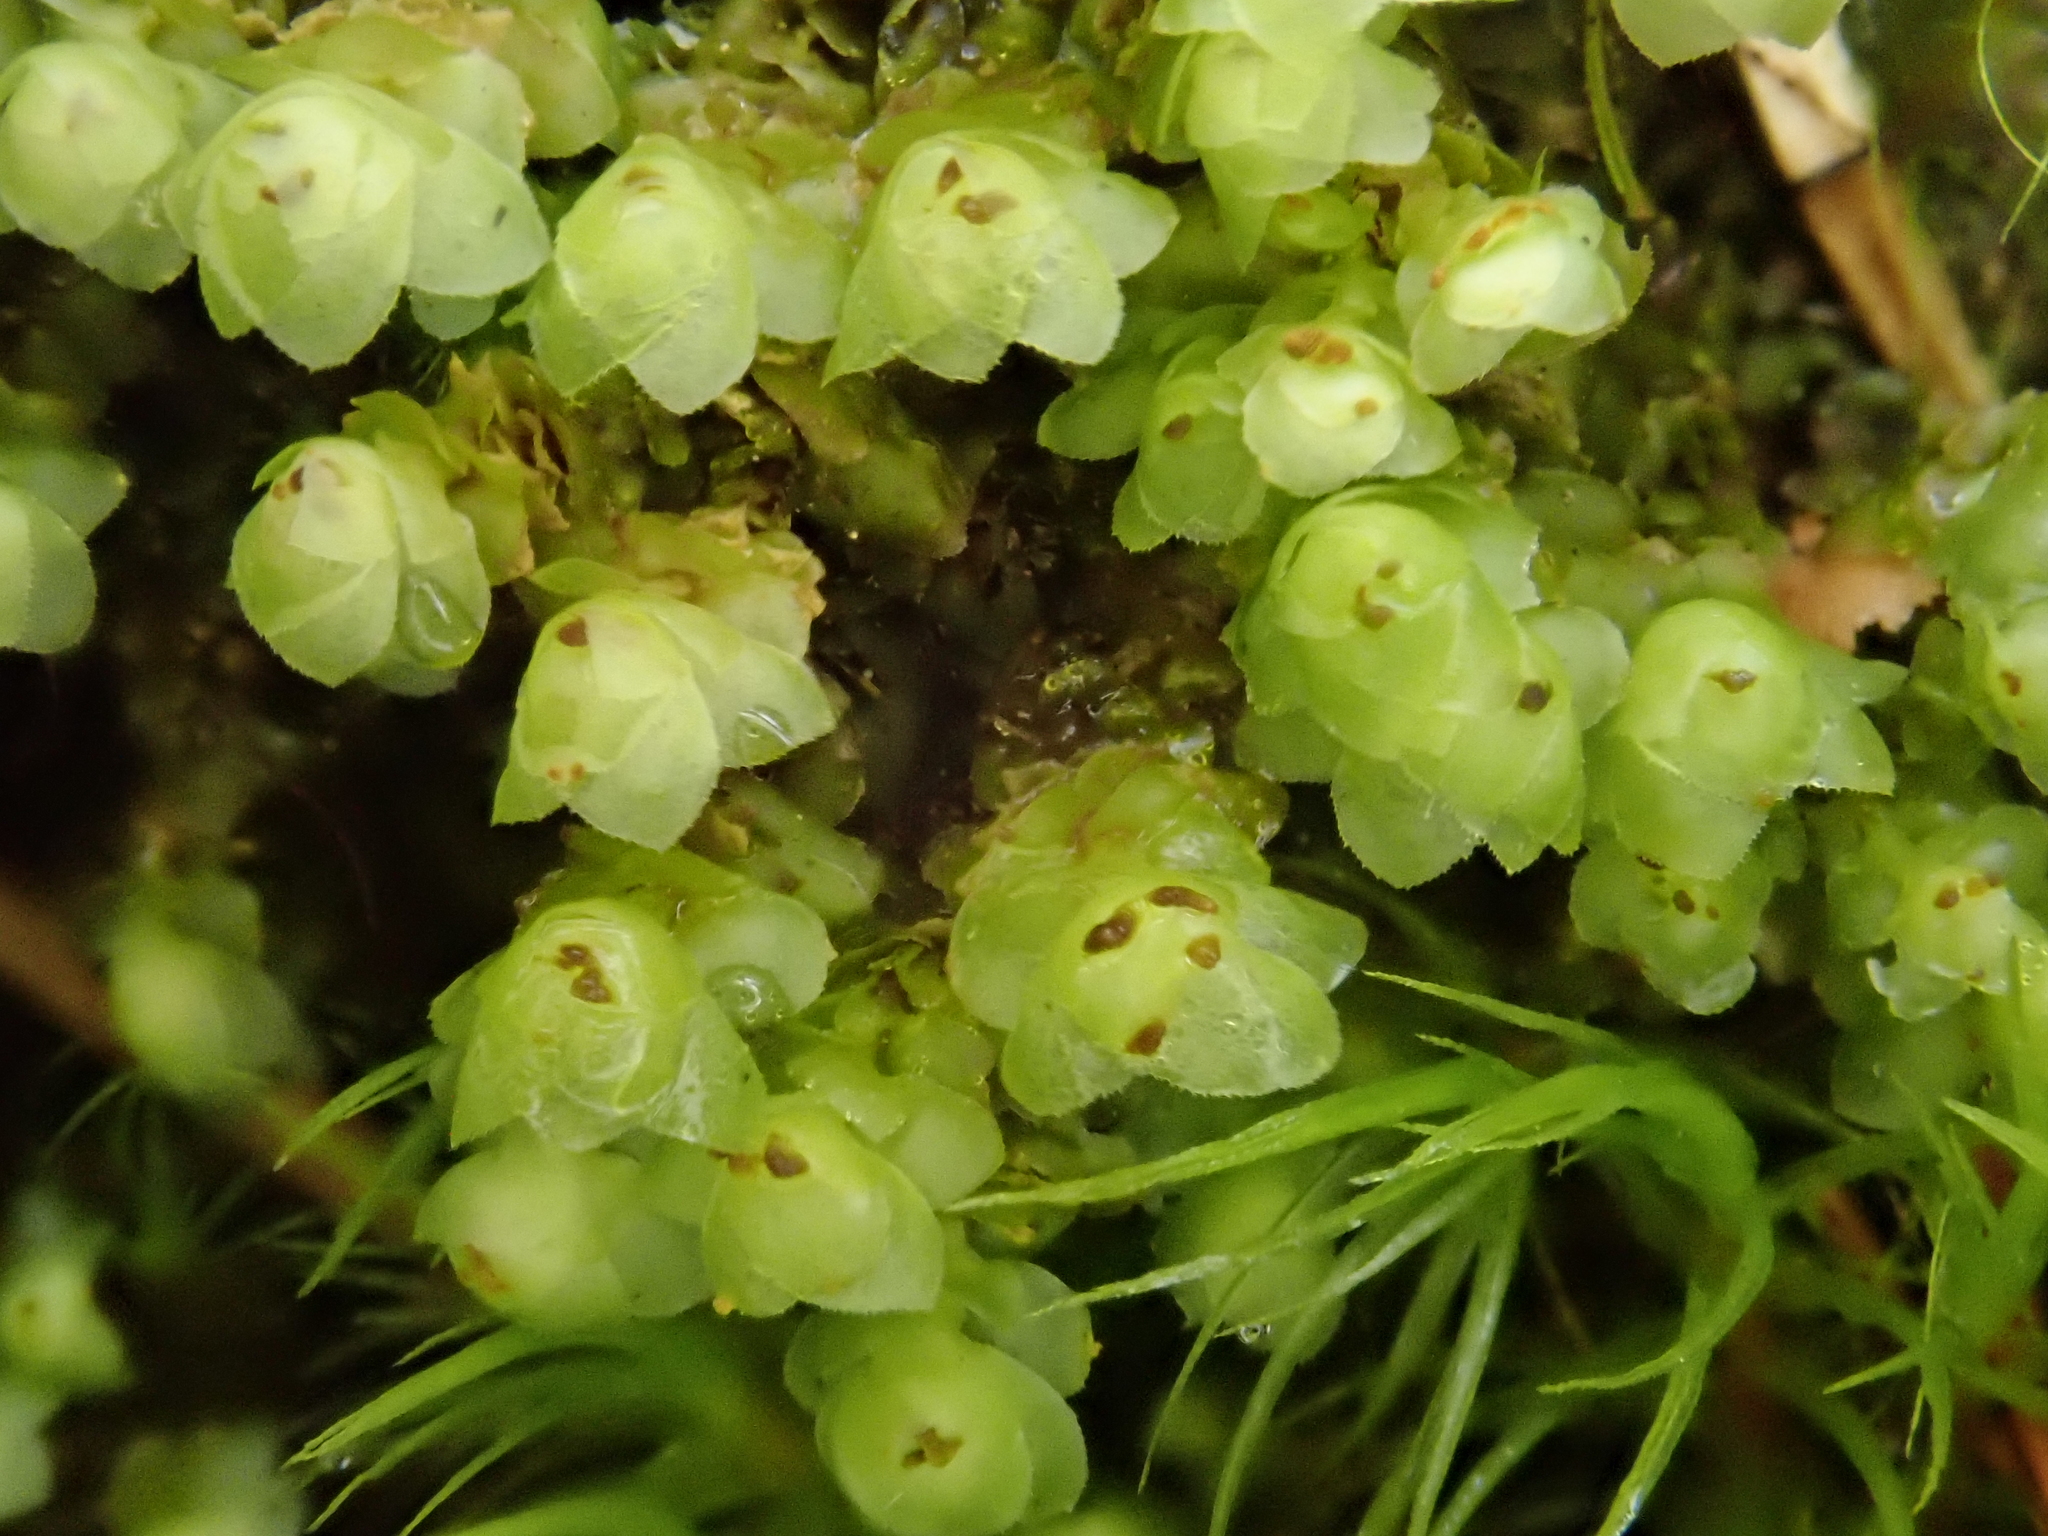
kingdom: Plantae
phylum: Marchantiophyta
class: Jungermanniopsida
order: Jungermanniales
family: Scapaniaceae
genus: Scapania
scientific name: Scapania nemorea
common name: Grove earwort
